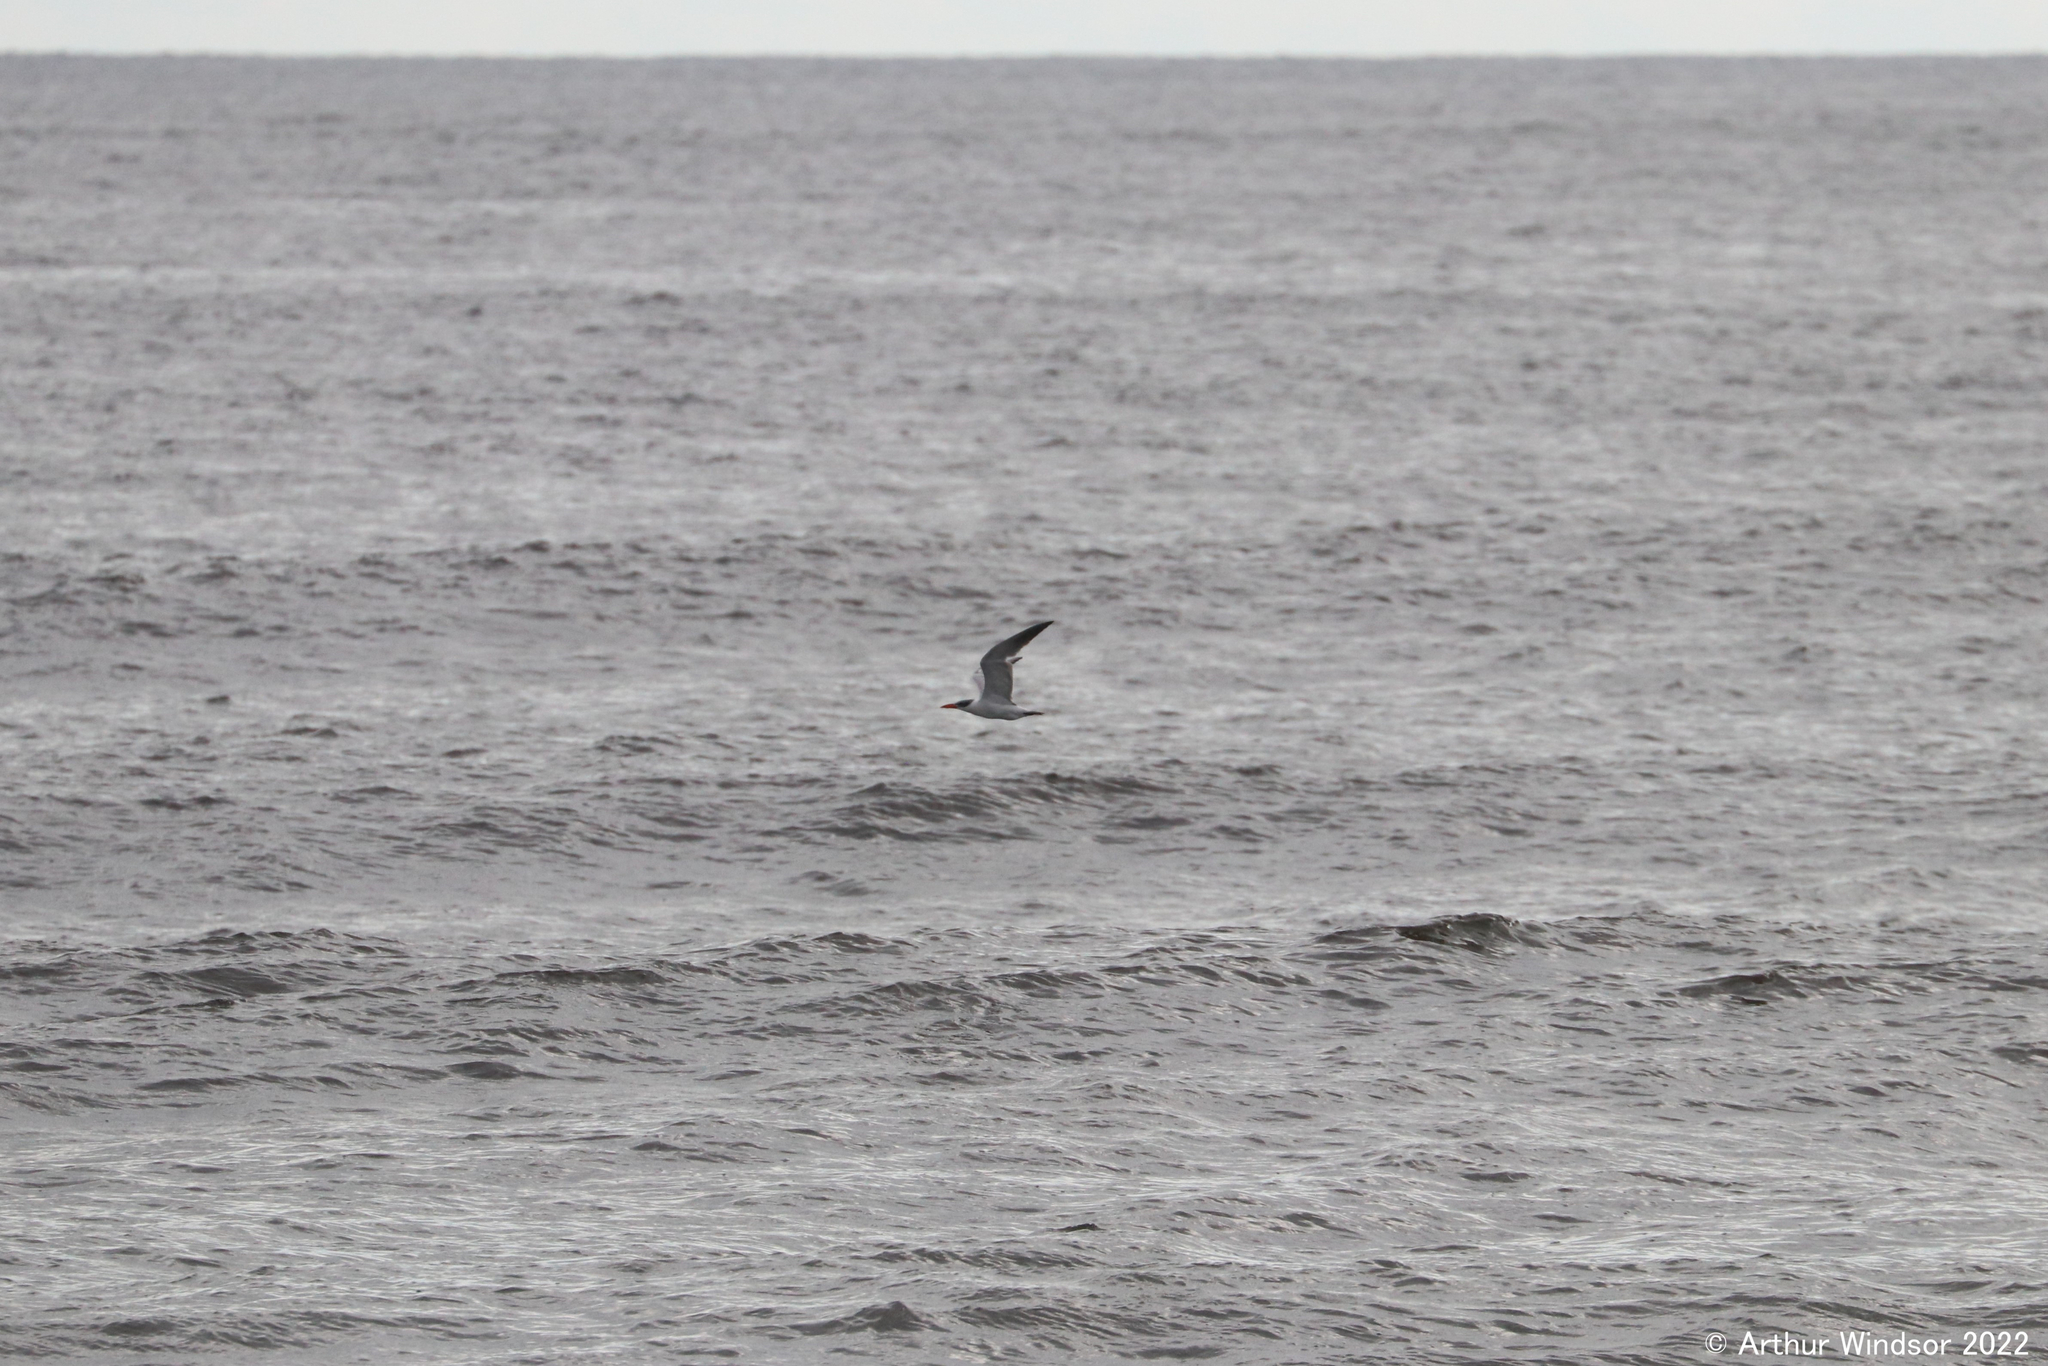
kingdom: Animalia
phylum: Chordata
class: Aves
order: Charadriiformes
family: Laridae
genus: Hydroprogne
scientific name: Hydroprogne caspia
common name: Caspian tern
